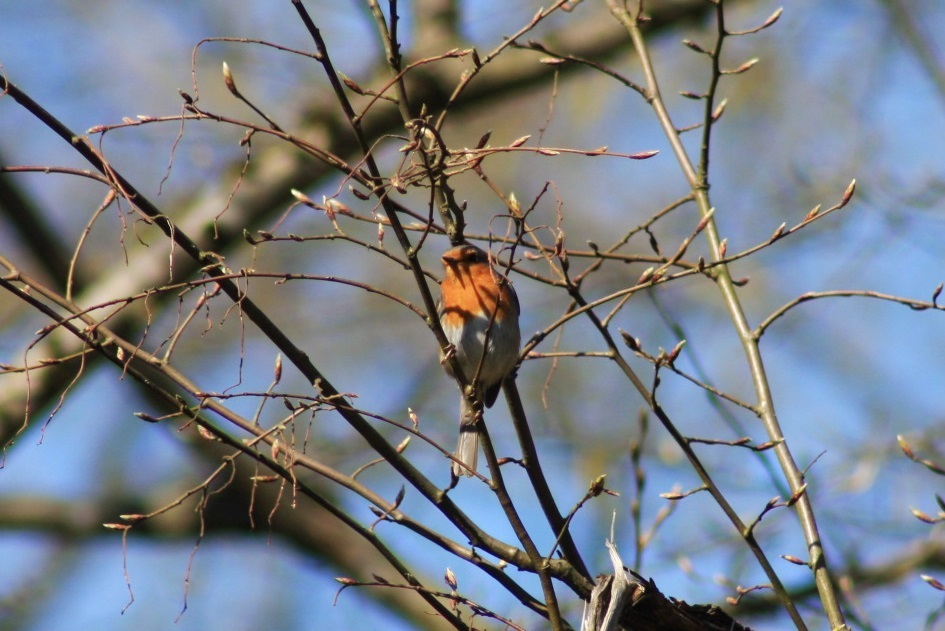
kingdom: Animalia
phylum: Chordata
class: Aves
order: Passeriformes
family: Muscicapidae
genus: Erithacus
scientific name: Erithacus rubecula
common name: European robin
